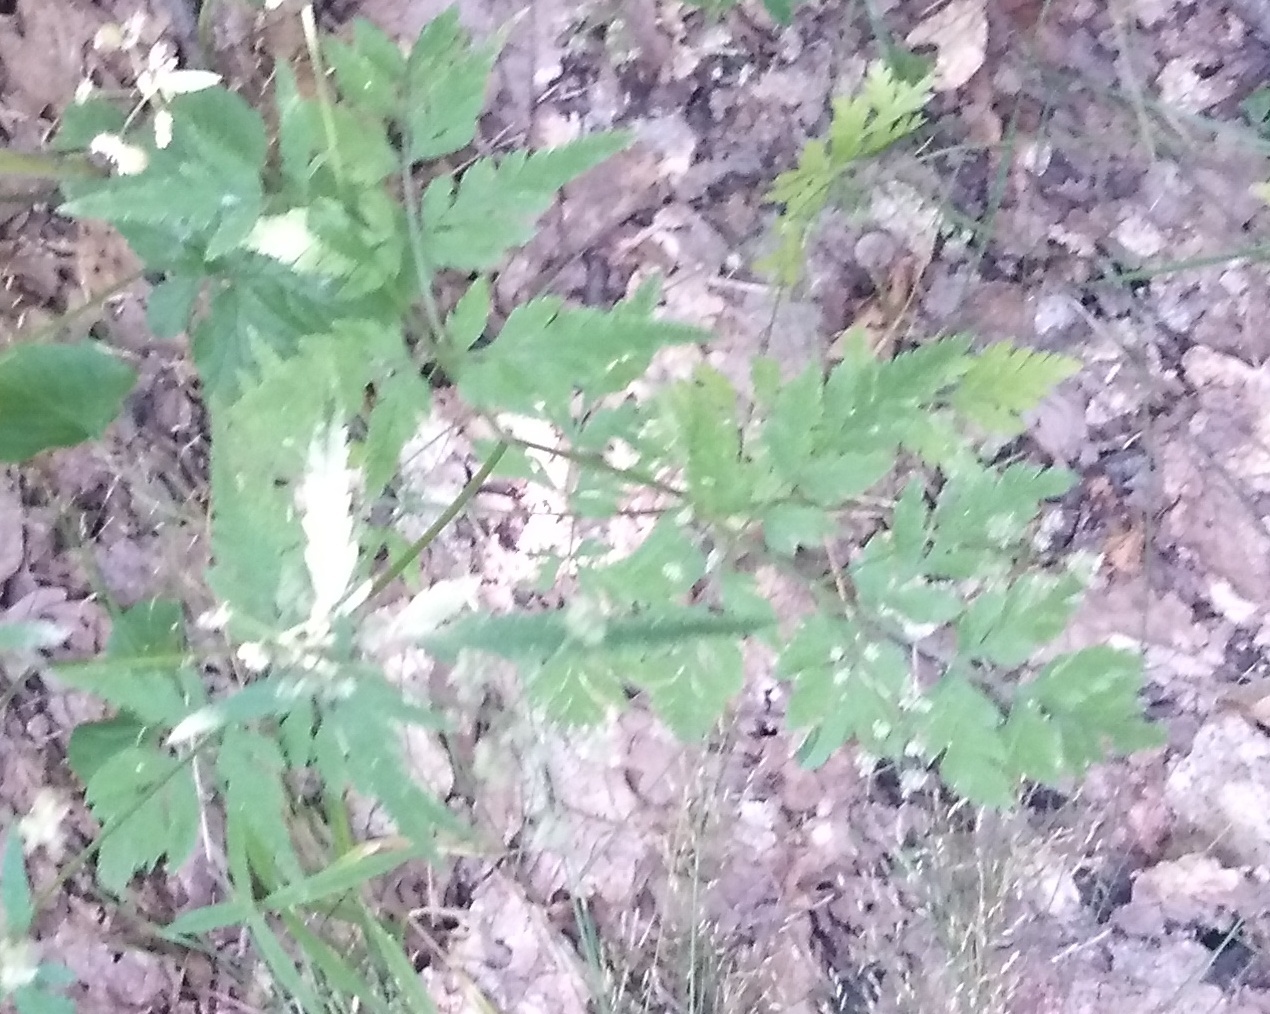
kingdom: Plantae
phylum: Tracheophyta
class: Magnoliopsida
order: Apiales
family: Apiaceae
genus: Torilis
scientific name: Torilis japonica
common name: Upright hedge-parsley
